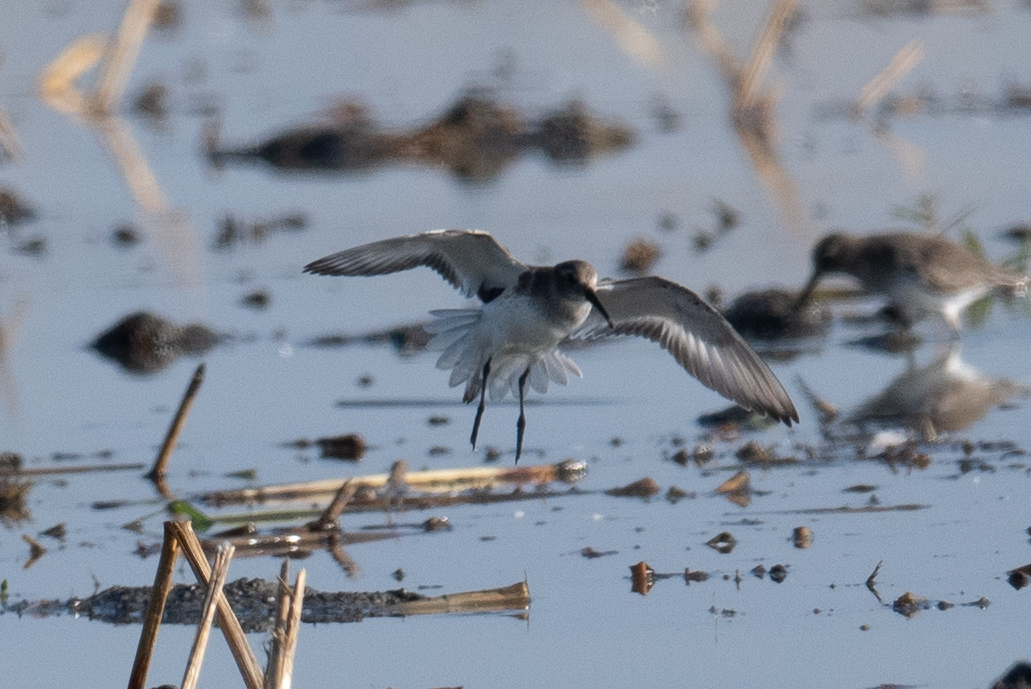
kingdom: Animalia
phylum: Chordata
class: Aves
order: Charadriiformes
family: Scolopacidae
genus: Calidris
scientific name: Calidris alpina
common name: Dunlin
